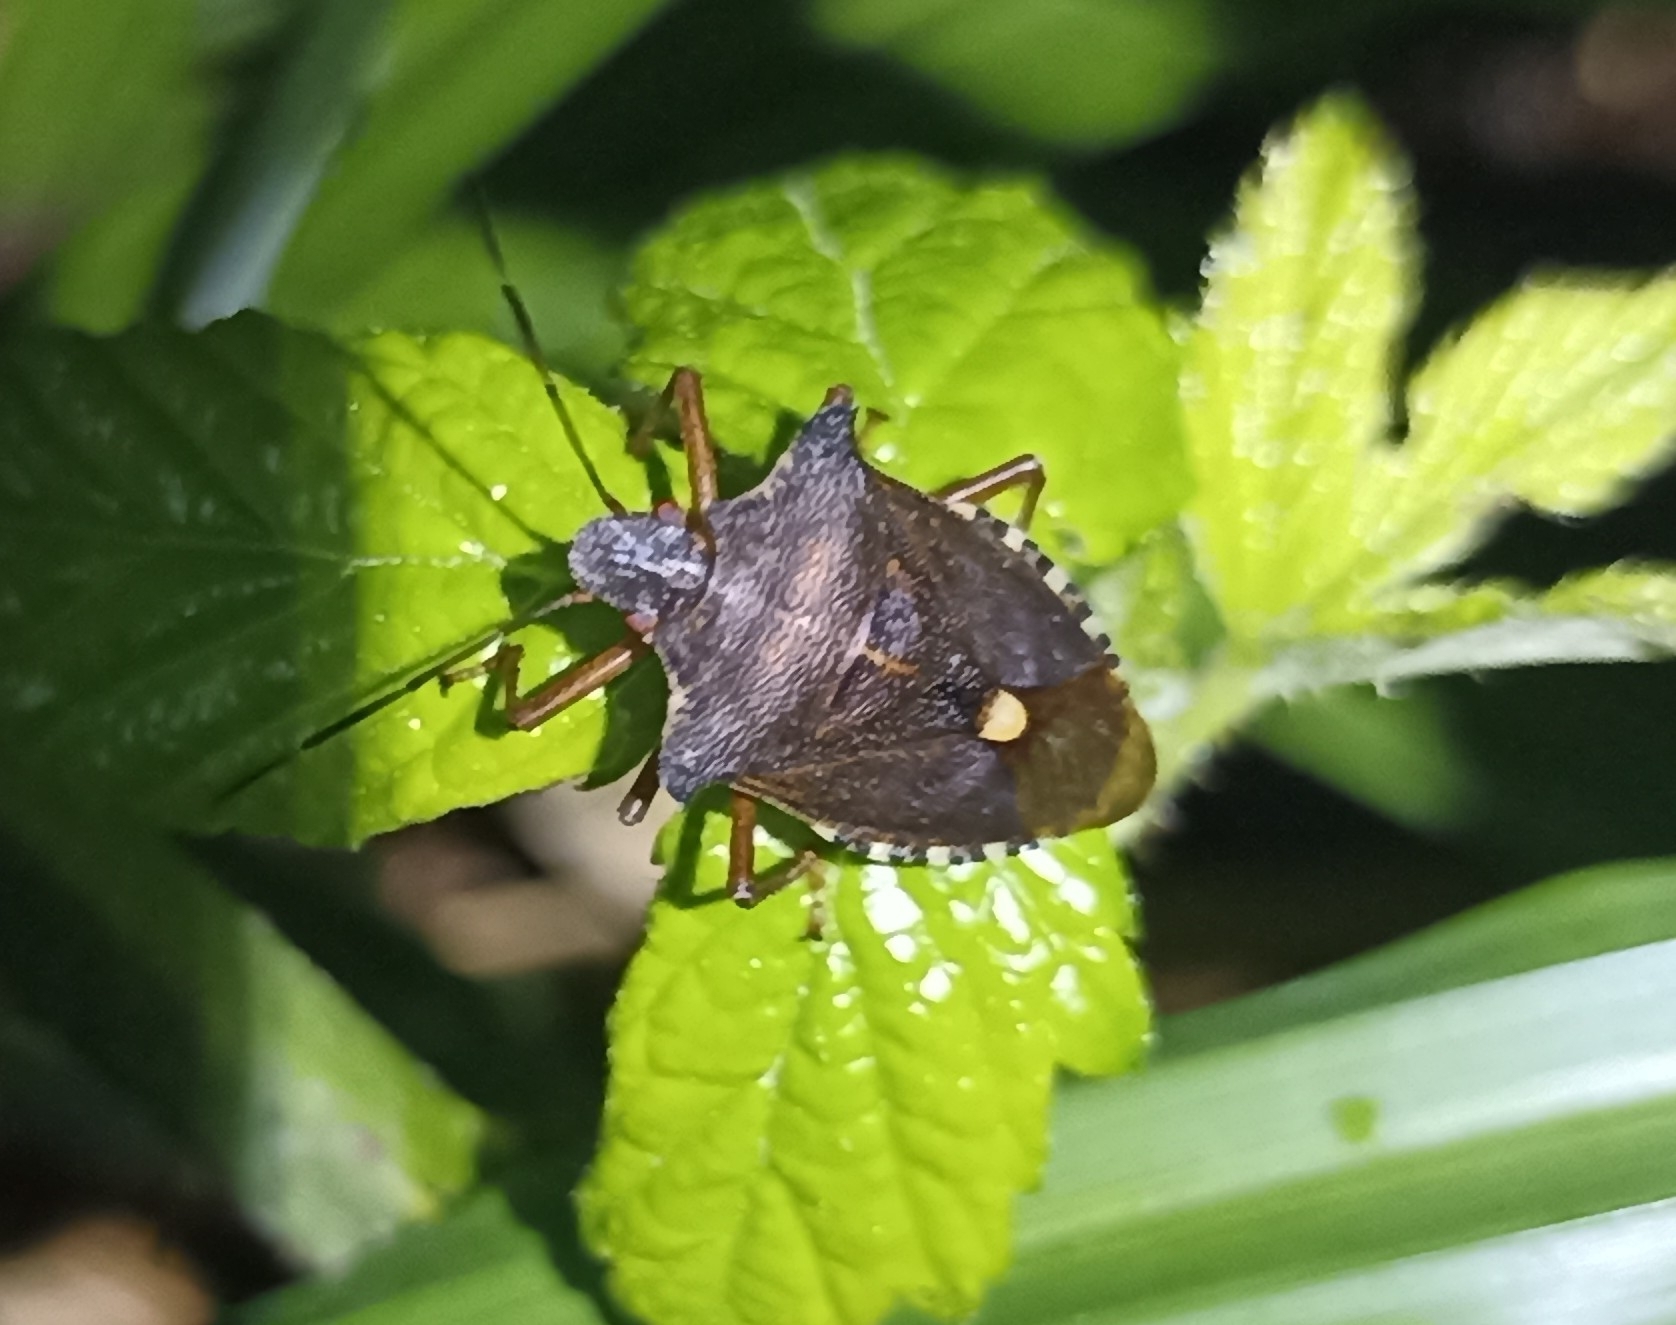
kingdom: Animalia
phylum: Arthropoda
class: Insecta
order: Hemiptera
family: Pentatomidae
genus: Pentatoma
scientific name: Pentatoma rufipes
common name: Forest bug
